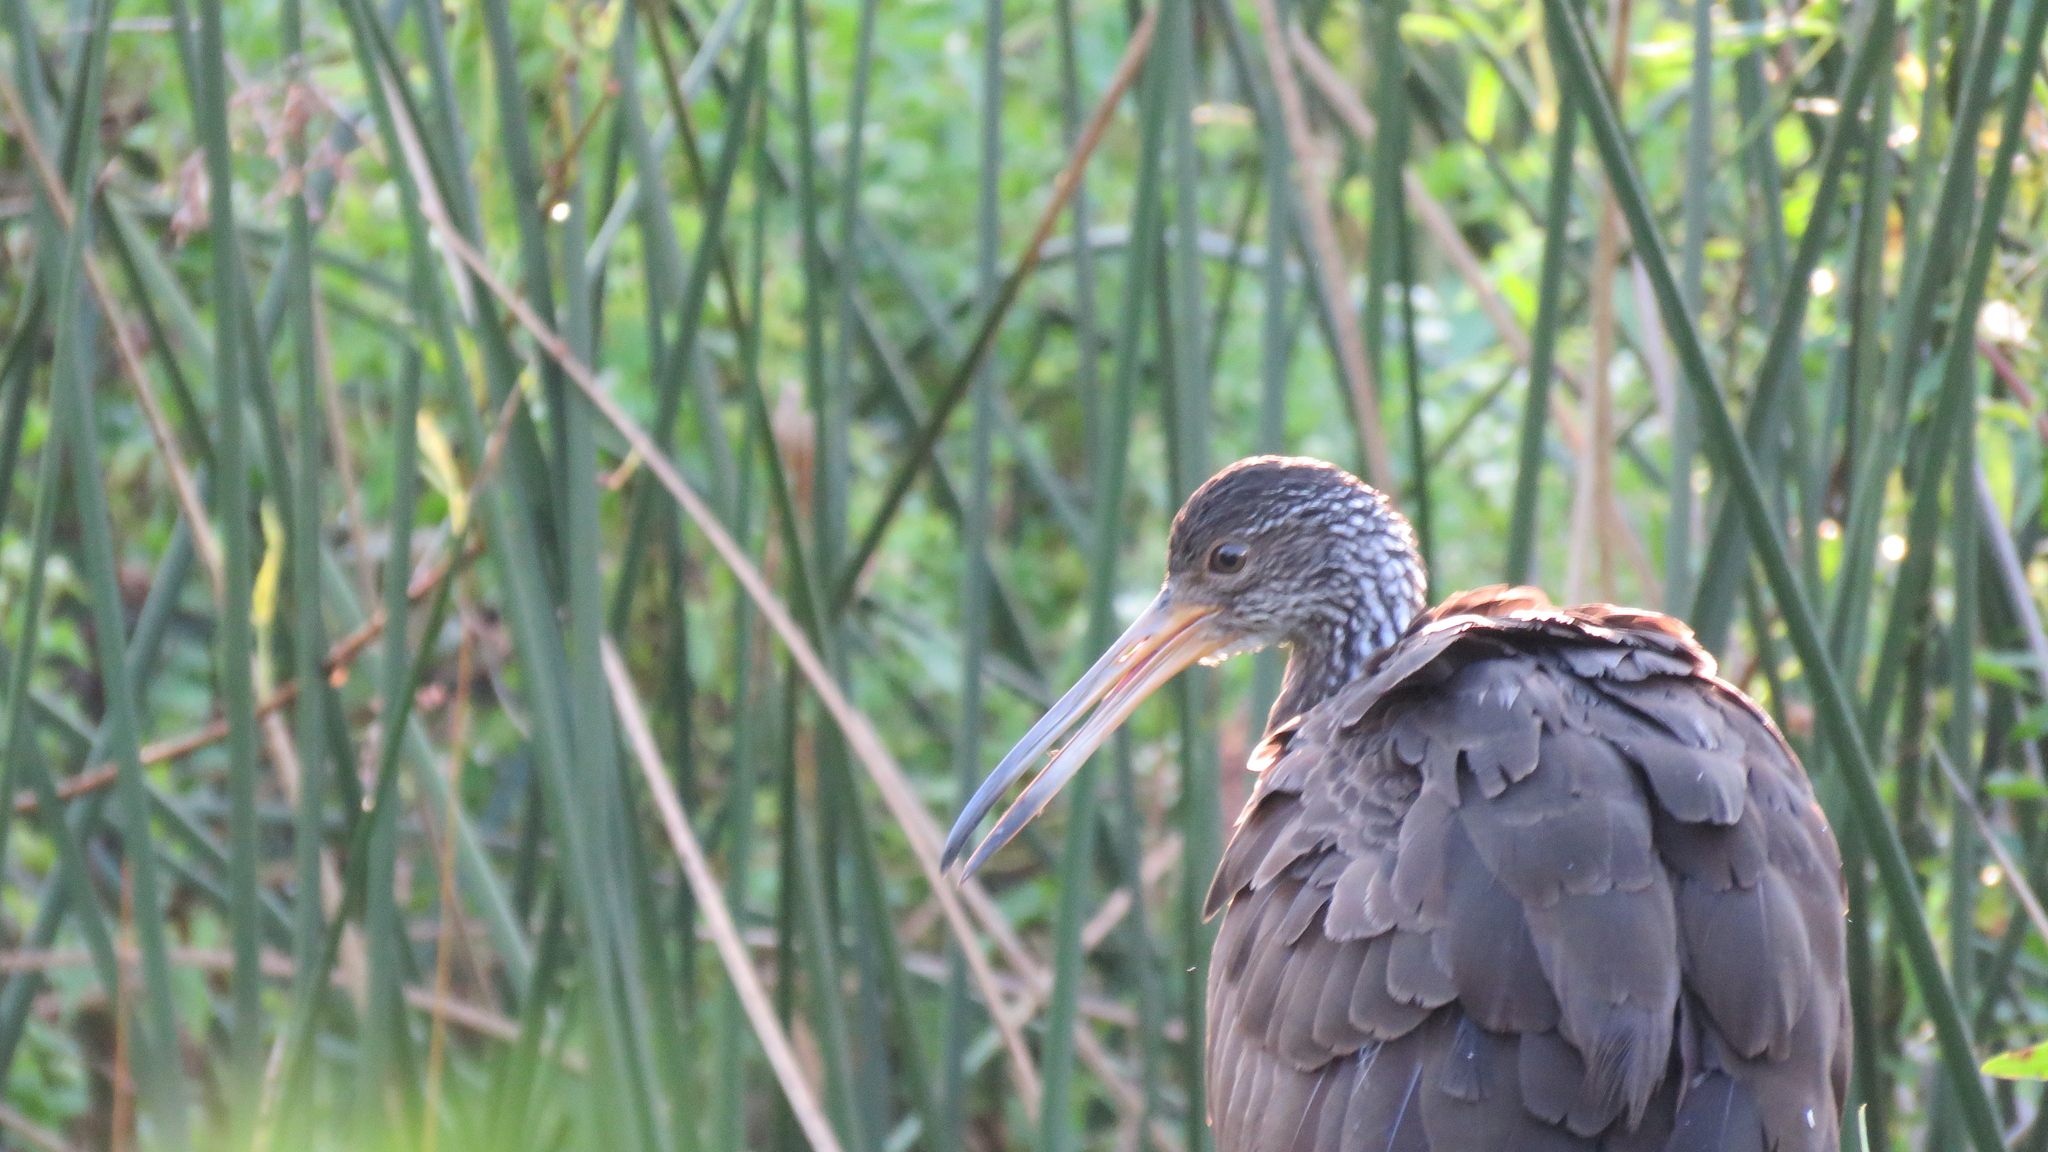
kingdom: Animalia
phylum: Chordata
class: Aves
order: Gruiformes
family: Aramidae
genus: Aramus
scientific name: Aramus guarauna
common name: Limpkin
